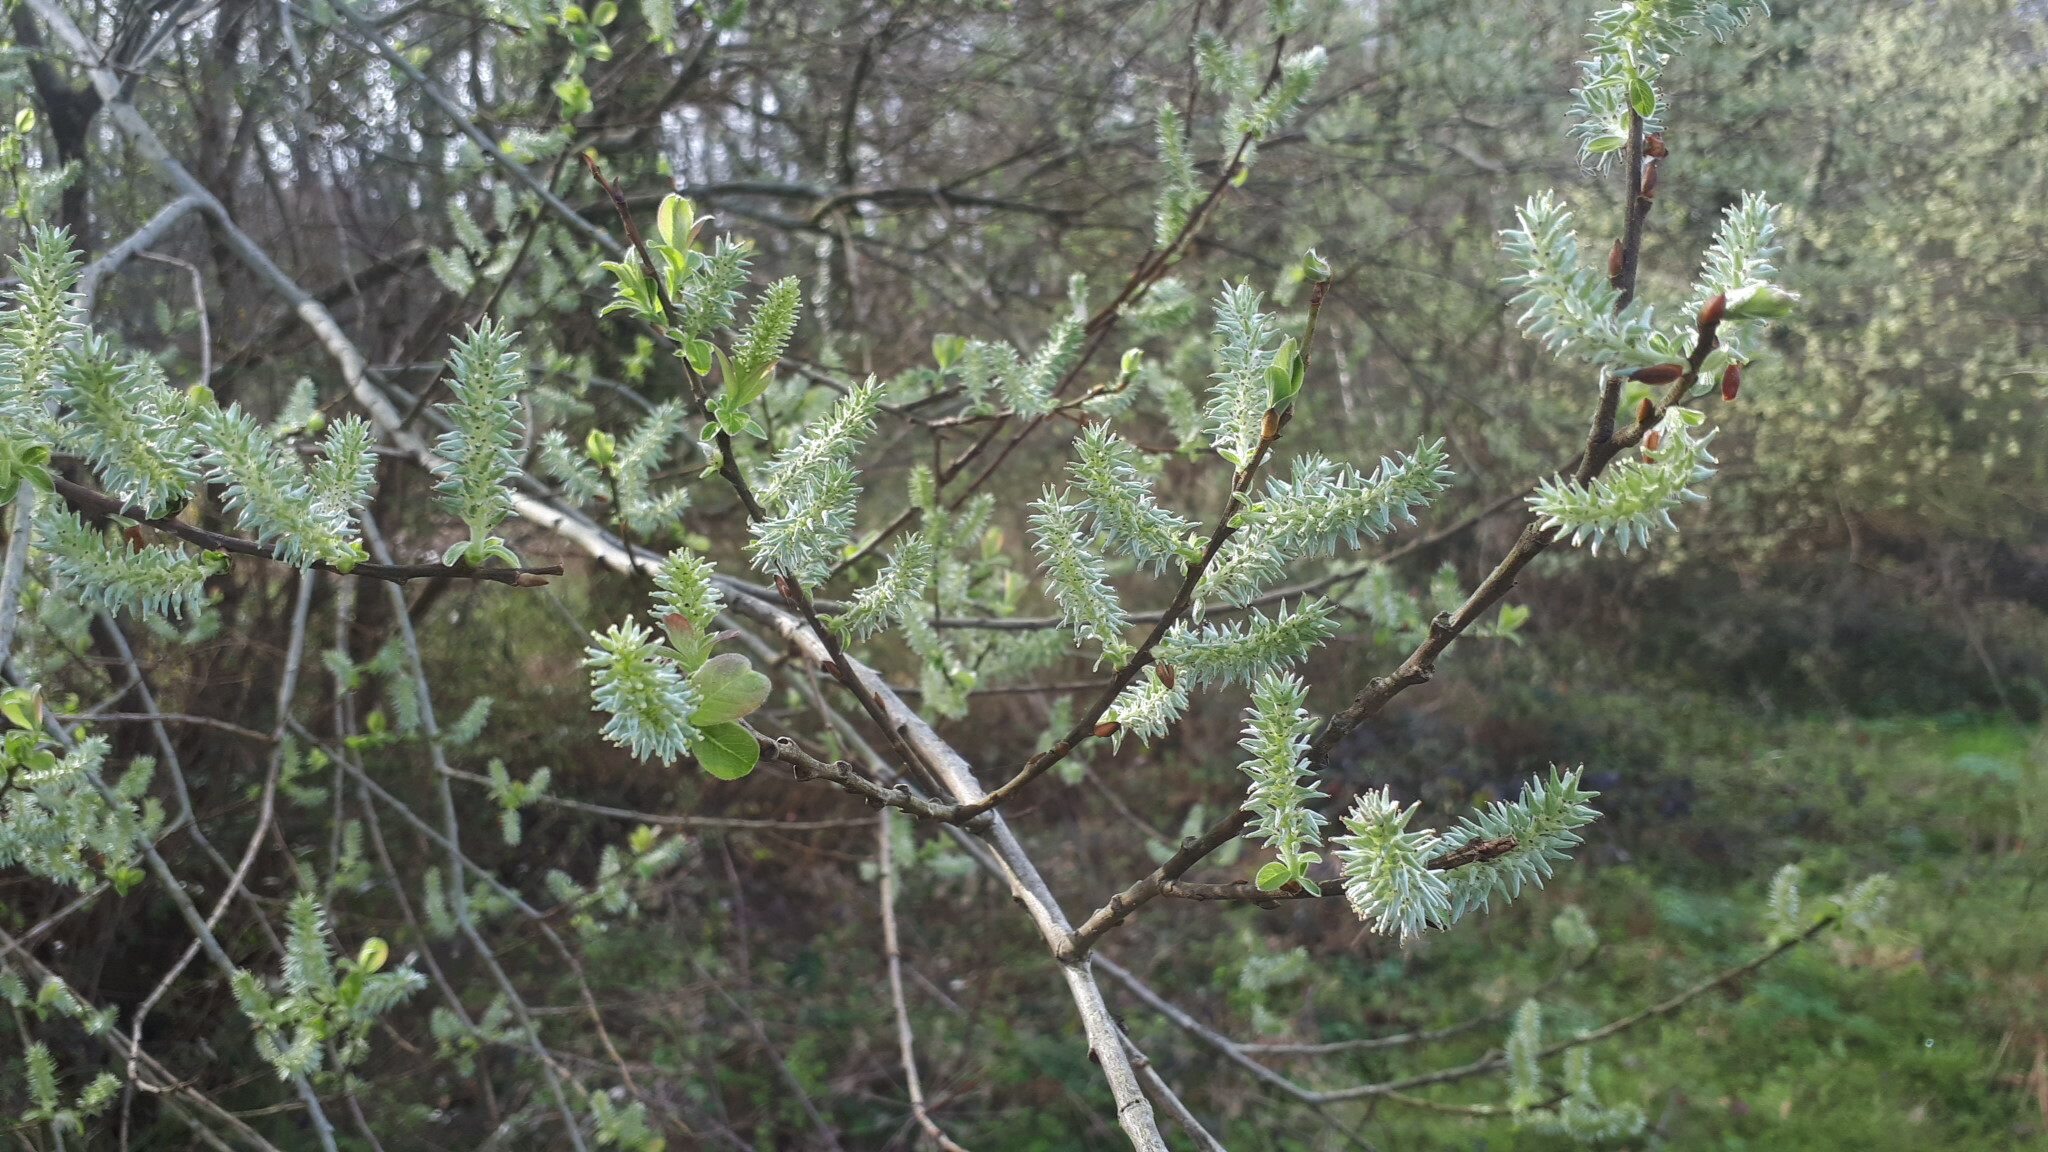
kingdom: Plantae
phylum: Tracheophyta
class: Magnoliopsida
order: Malpighiales
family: Salicaceae
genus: Salix
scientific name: Salix atrocinerea
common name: Rusty willow
